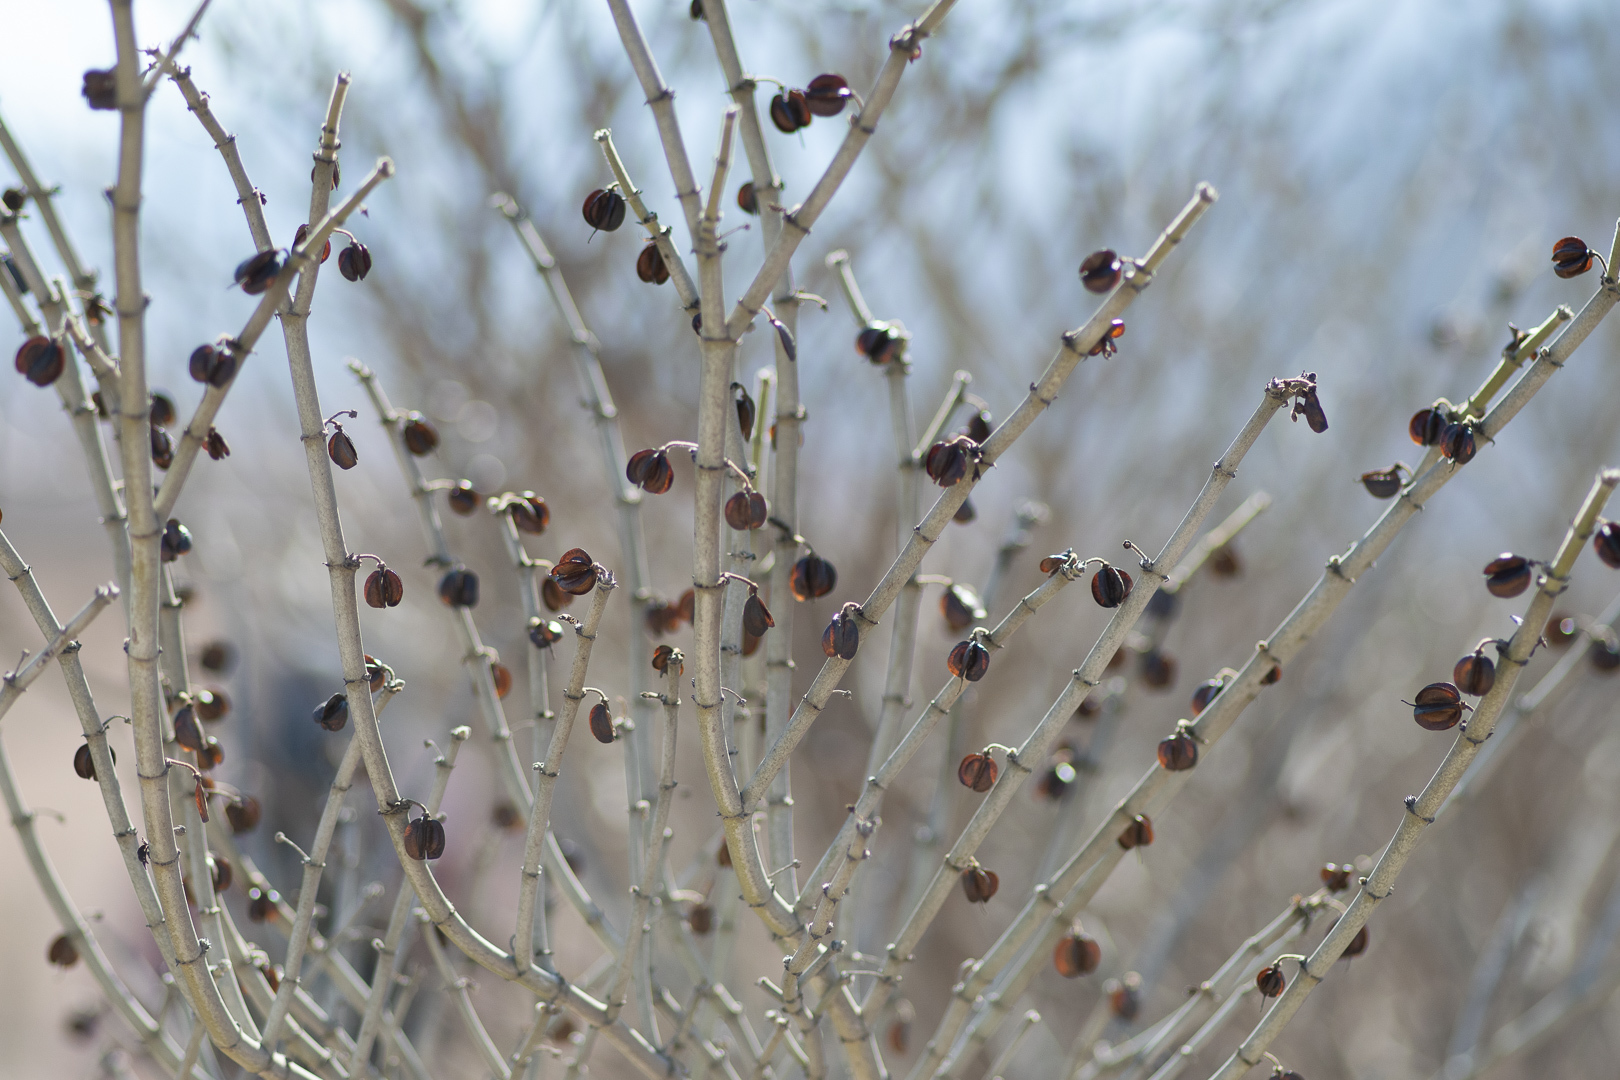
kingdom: Plantae
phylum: Tracheophyta
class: Magnoliopsida
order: Zygophyllales
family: Zygophyllaceae
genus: Bulnesia
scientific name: Bulnesia chilensis
